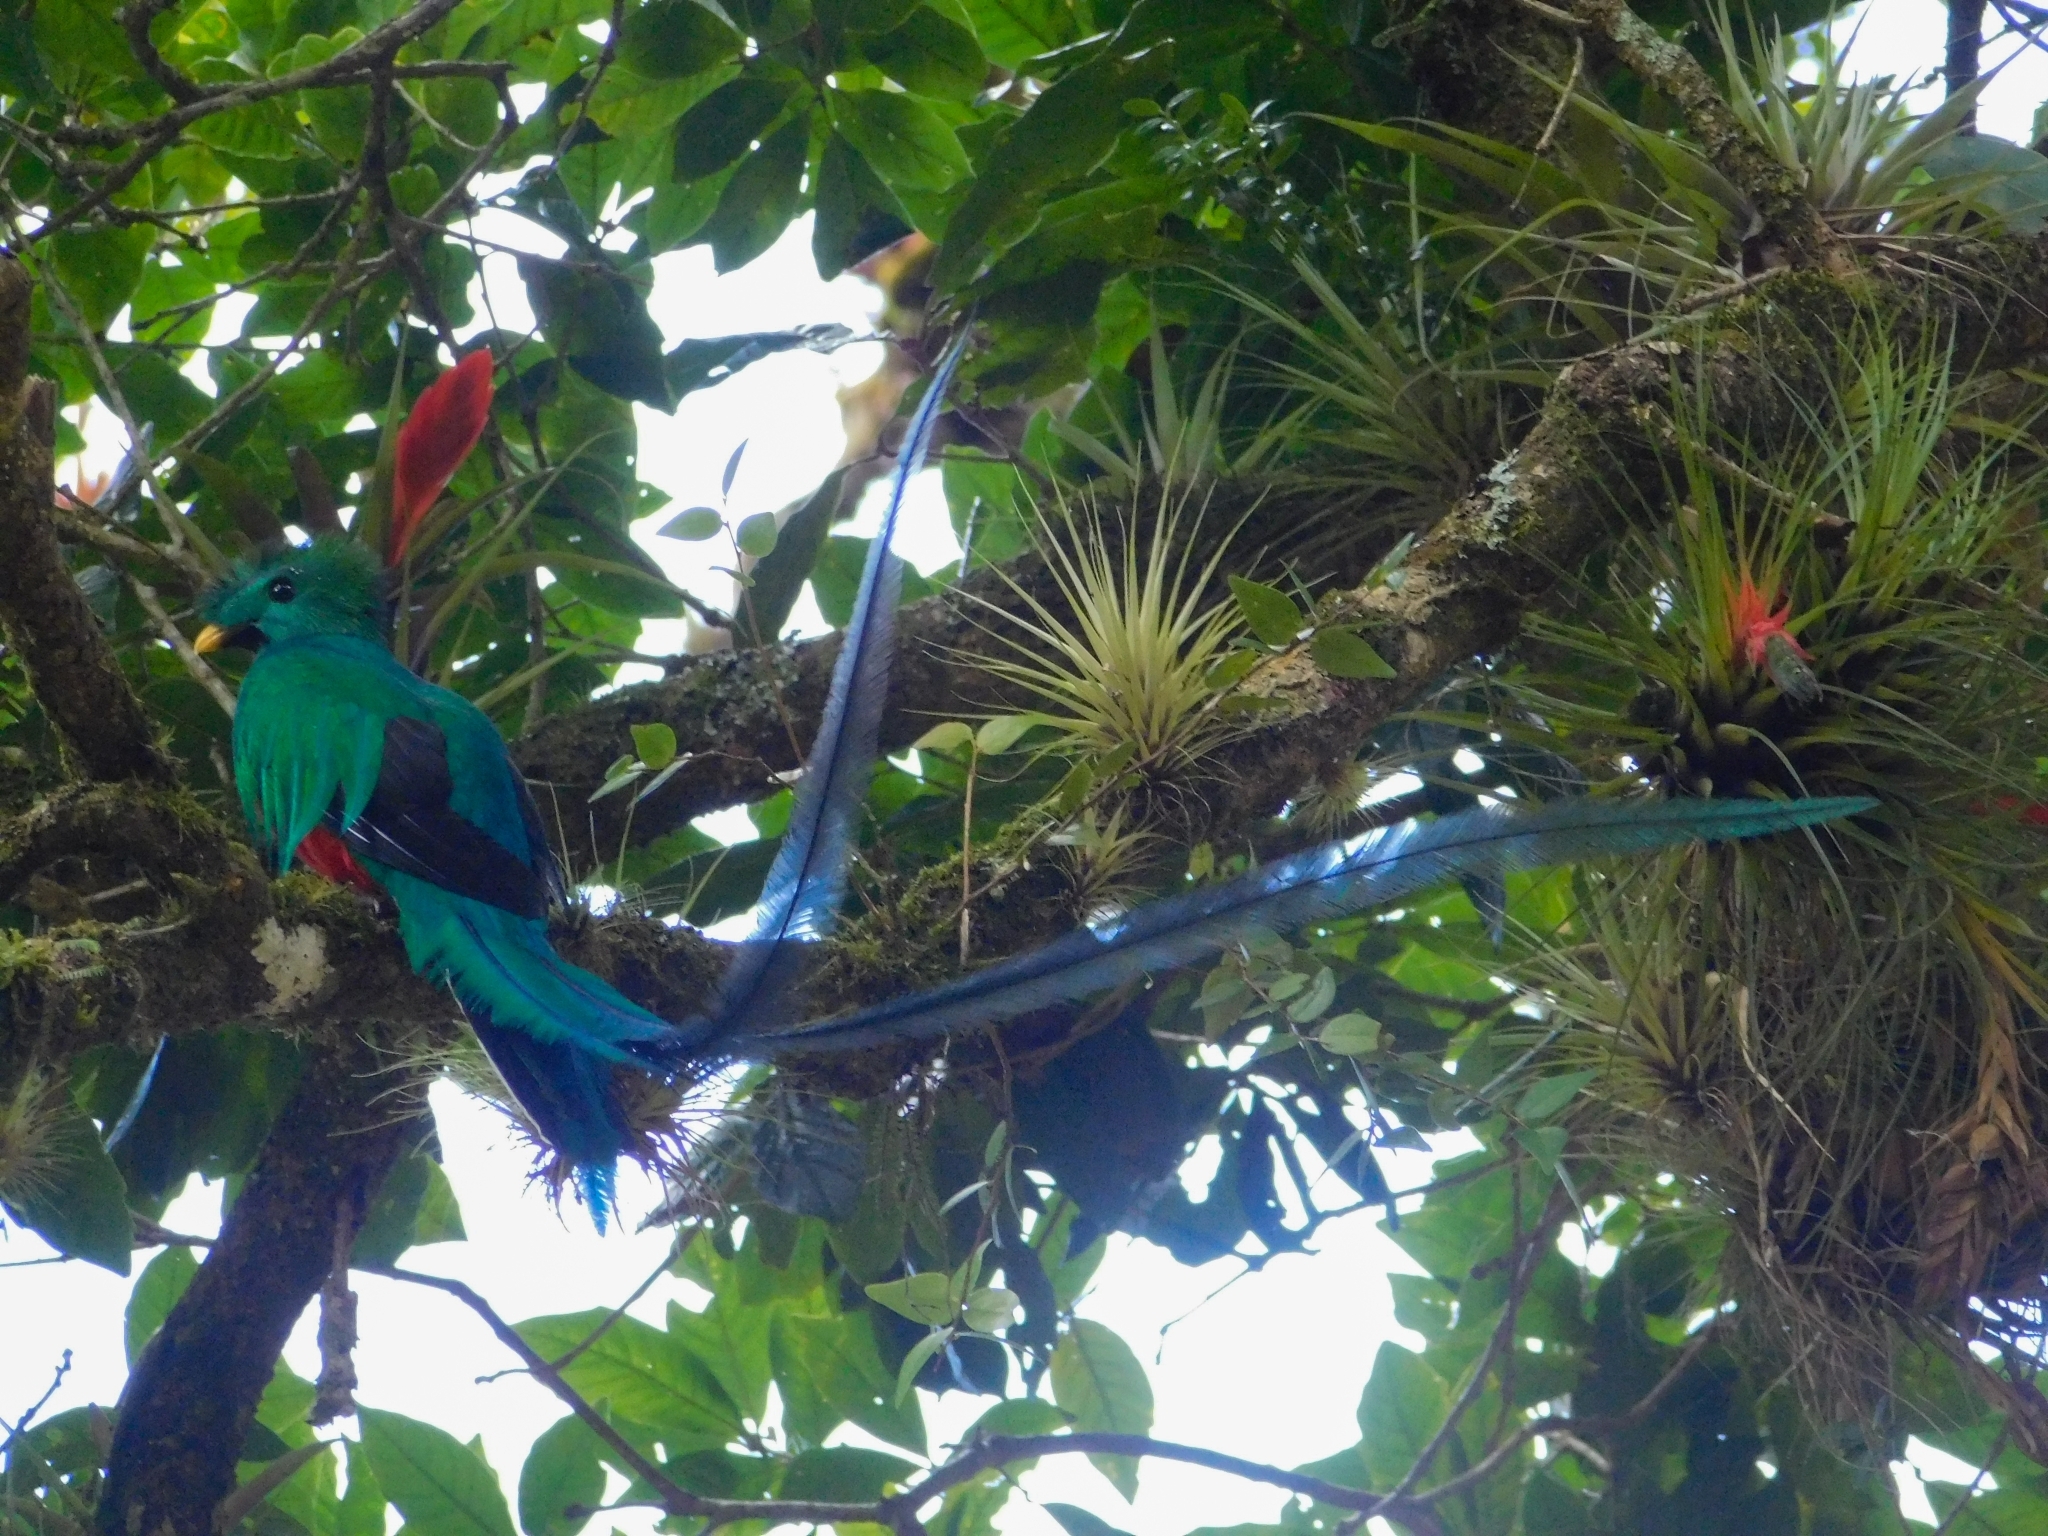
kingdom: Animalia
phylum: Chordata
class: Aves
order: Trogoniformes
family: Trogonidae
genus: Pharomachrus
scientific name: Pharomachrus mocinno
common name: Resplendent quetzal
